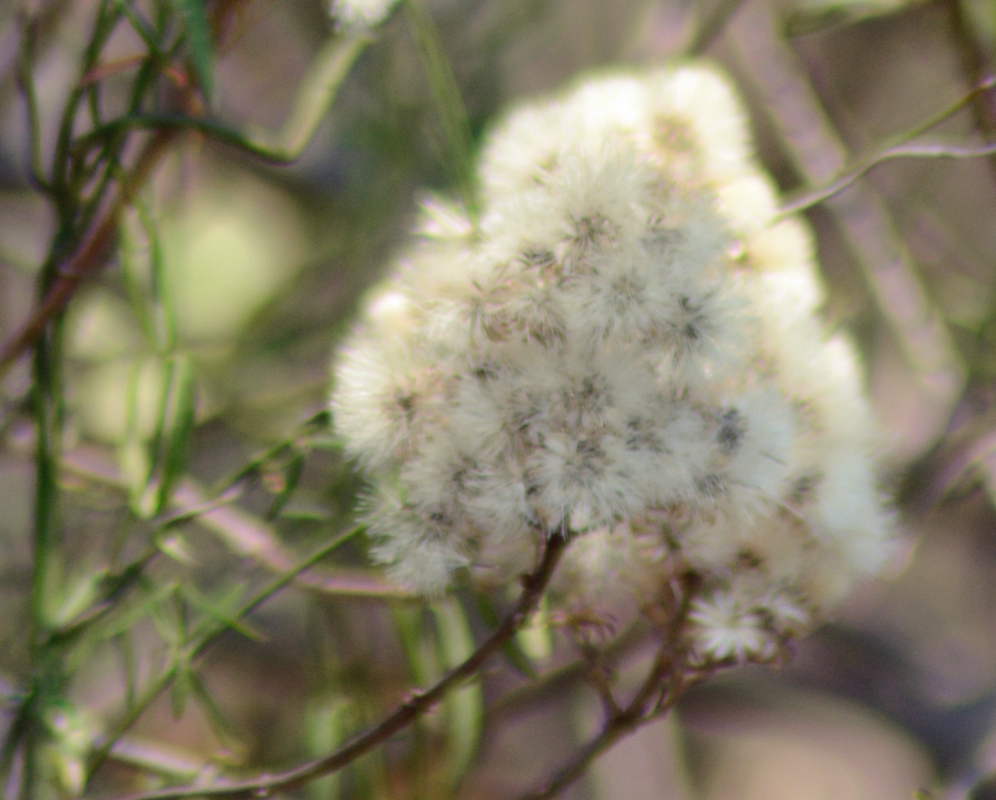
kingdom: Plantae
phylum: Tracheophyta
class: Magnoliopsida
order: Asterales
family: Asteraceae
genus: Barkleyanthus
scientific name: Barkleyanthus salicifolius
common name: Willow ragwort
